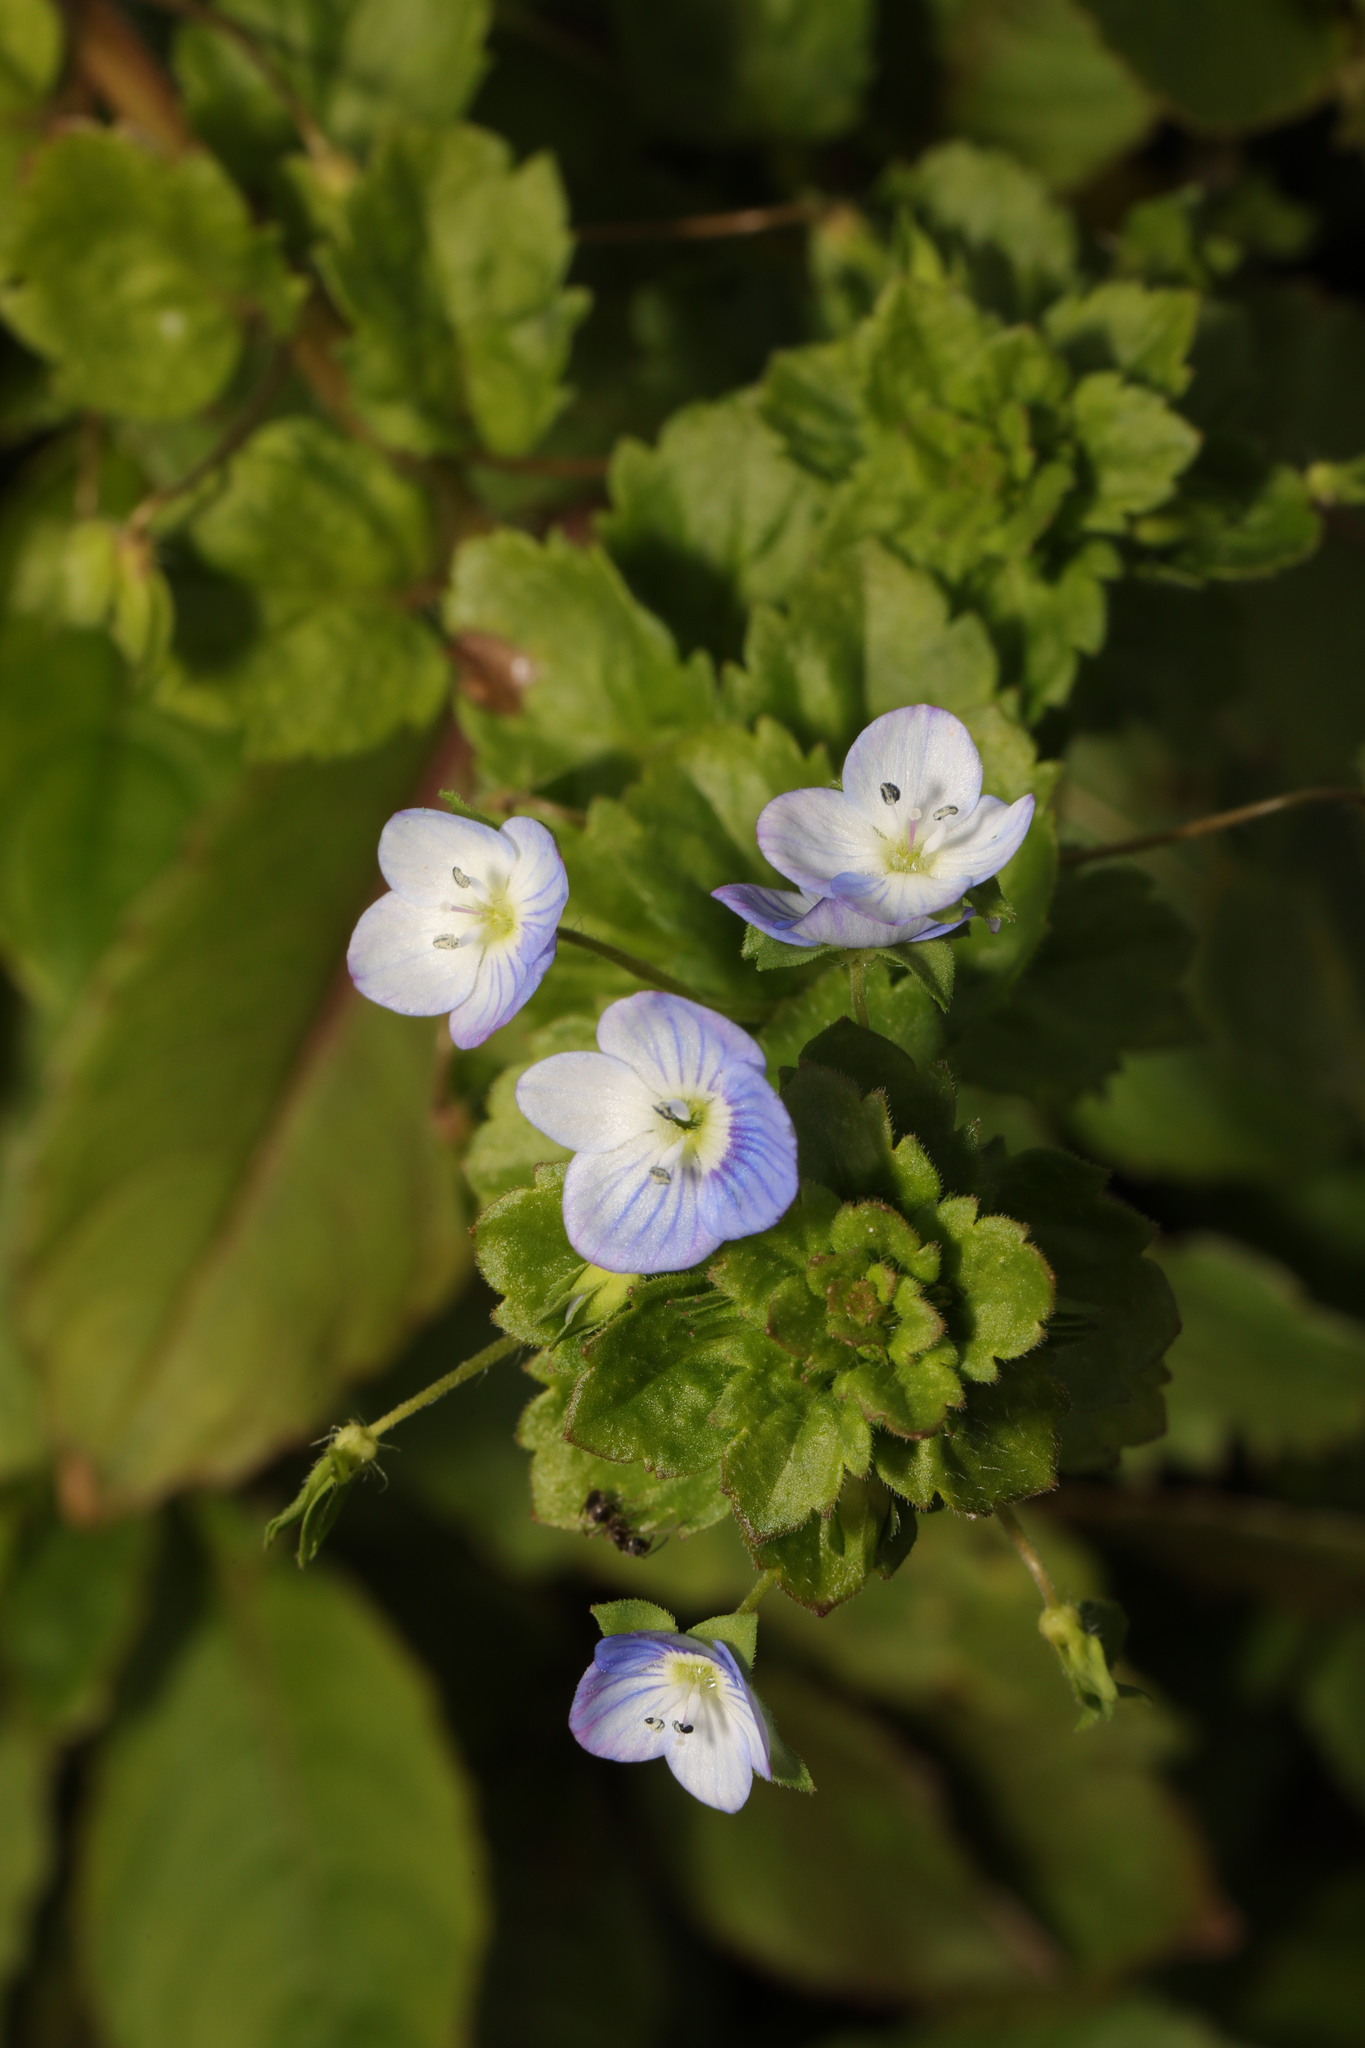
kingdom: Plantae
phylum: Tracheophyta
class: Magnoliopsida
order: Lamiales
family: Plantaginaceae
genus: Veronica
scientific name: Veronica persica
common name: Common field-speedwell
